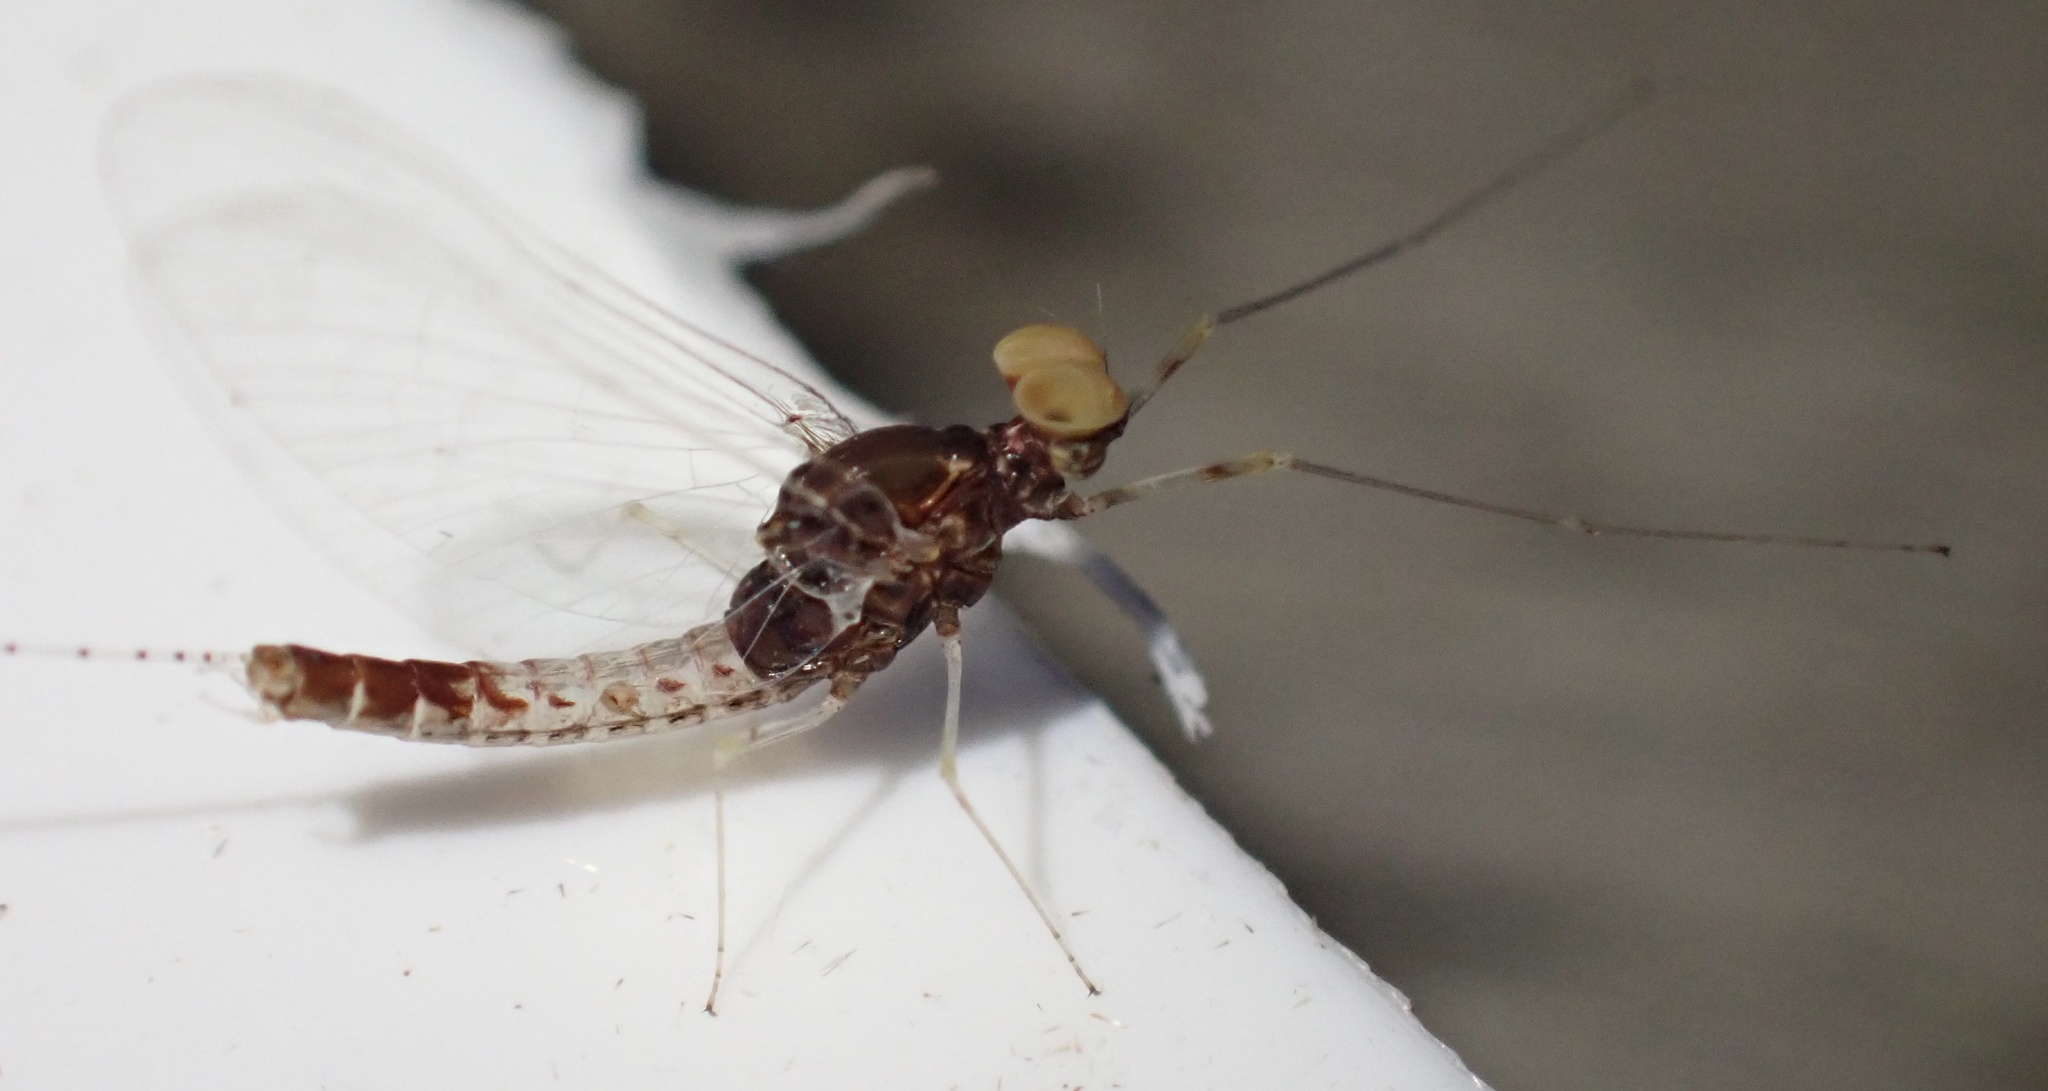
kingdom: Animalia
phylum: Arthropoda
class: Insecta
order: Ephemeroptera
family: Baetidae
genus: Cloeon
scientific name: Cloeon dipterum
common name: Pond olive
